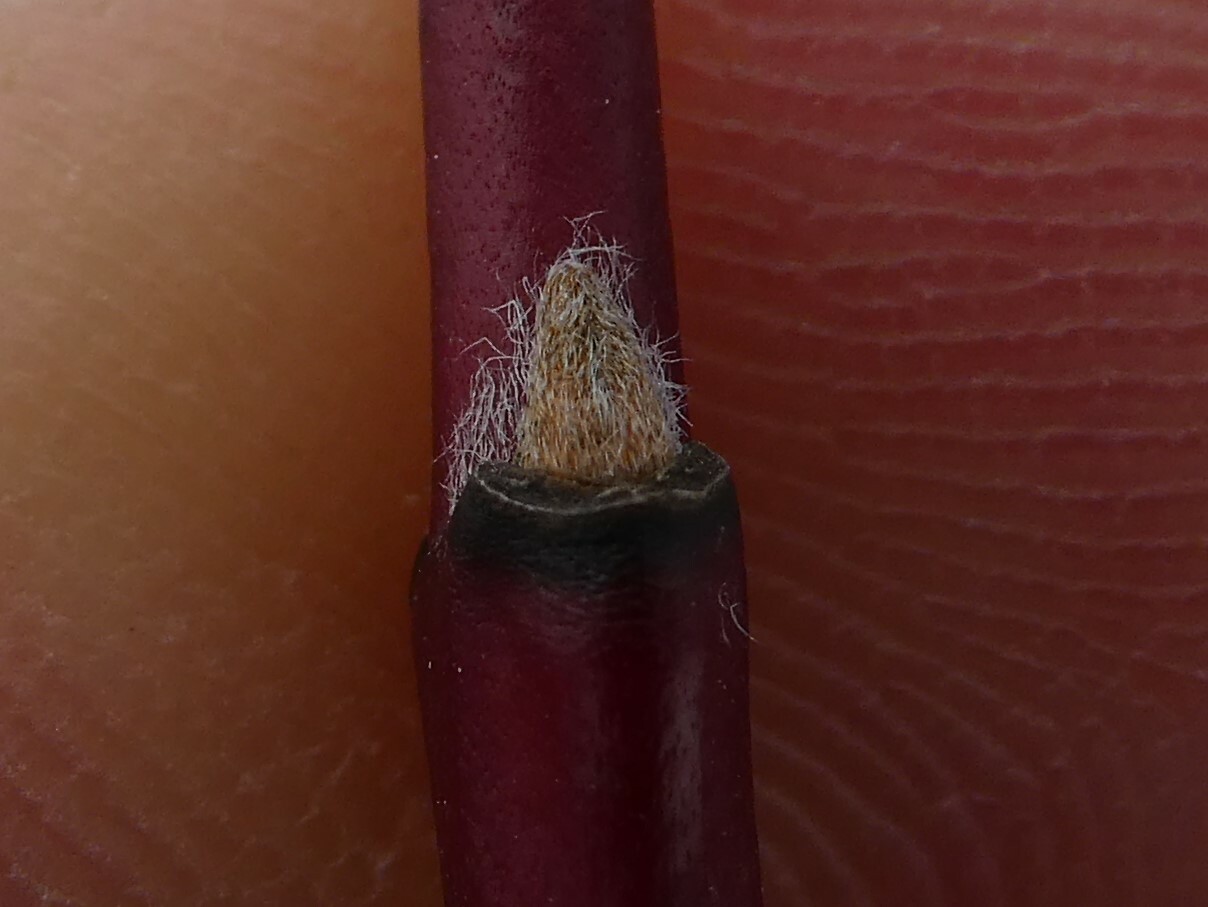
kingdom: Plantae
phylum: Tracheophyta
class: Magnoliopsida
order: Cornales
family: Cornaceae
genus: Cornus
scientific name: Cornus amomum
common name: Silky dogwood
